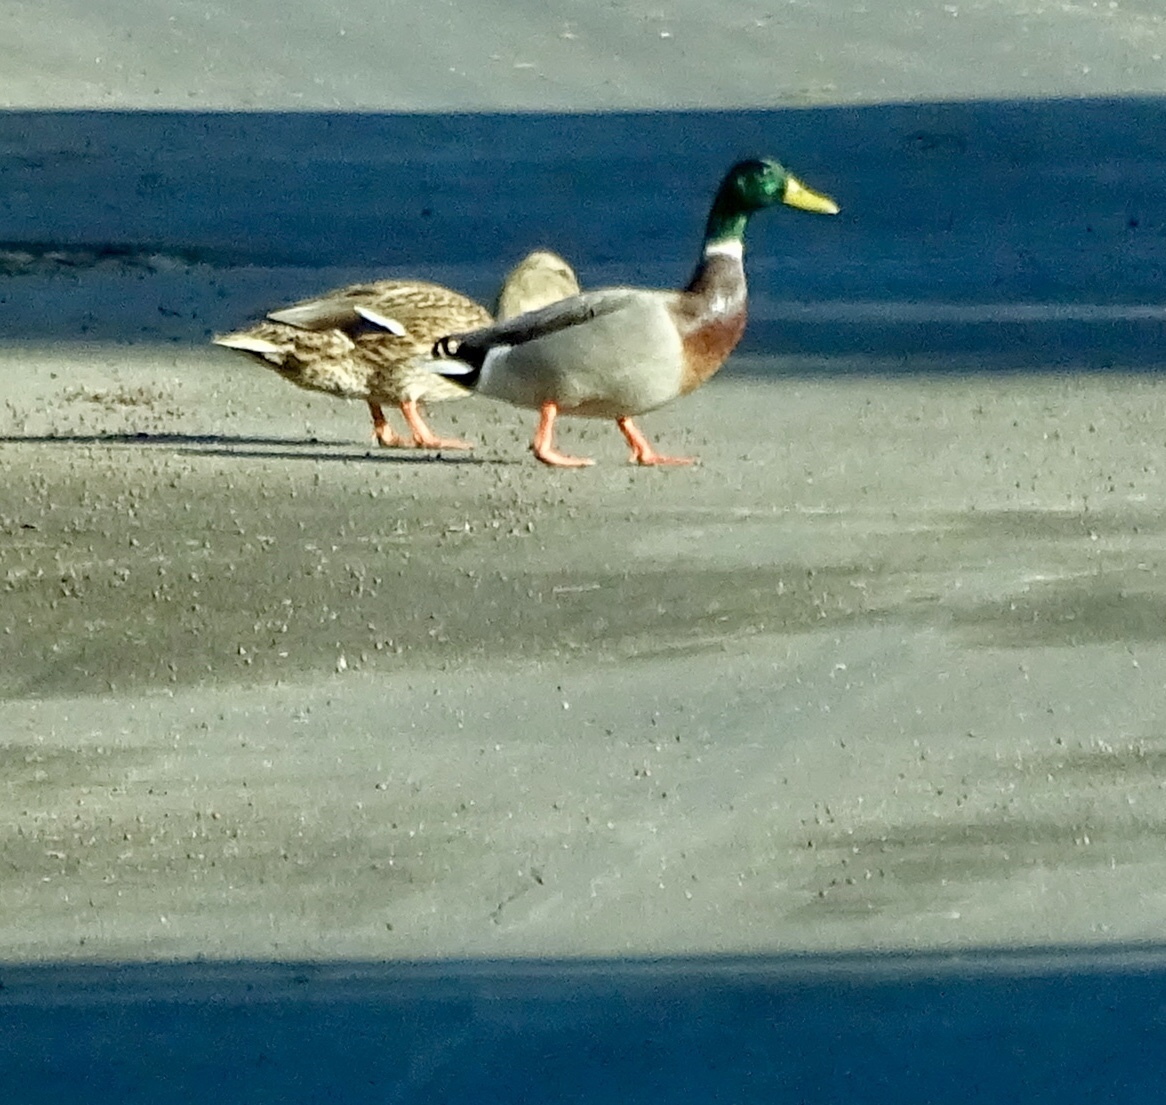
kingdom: Animalia
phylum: Chordata
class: Aves
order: Anseriformes
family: Anatidae
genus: Anas
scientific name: Anas platyrhynchos
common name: Mallard
